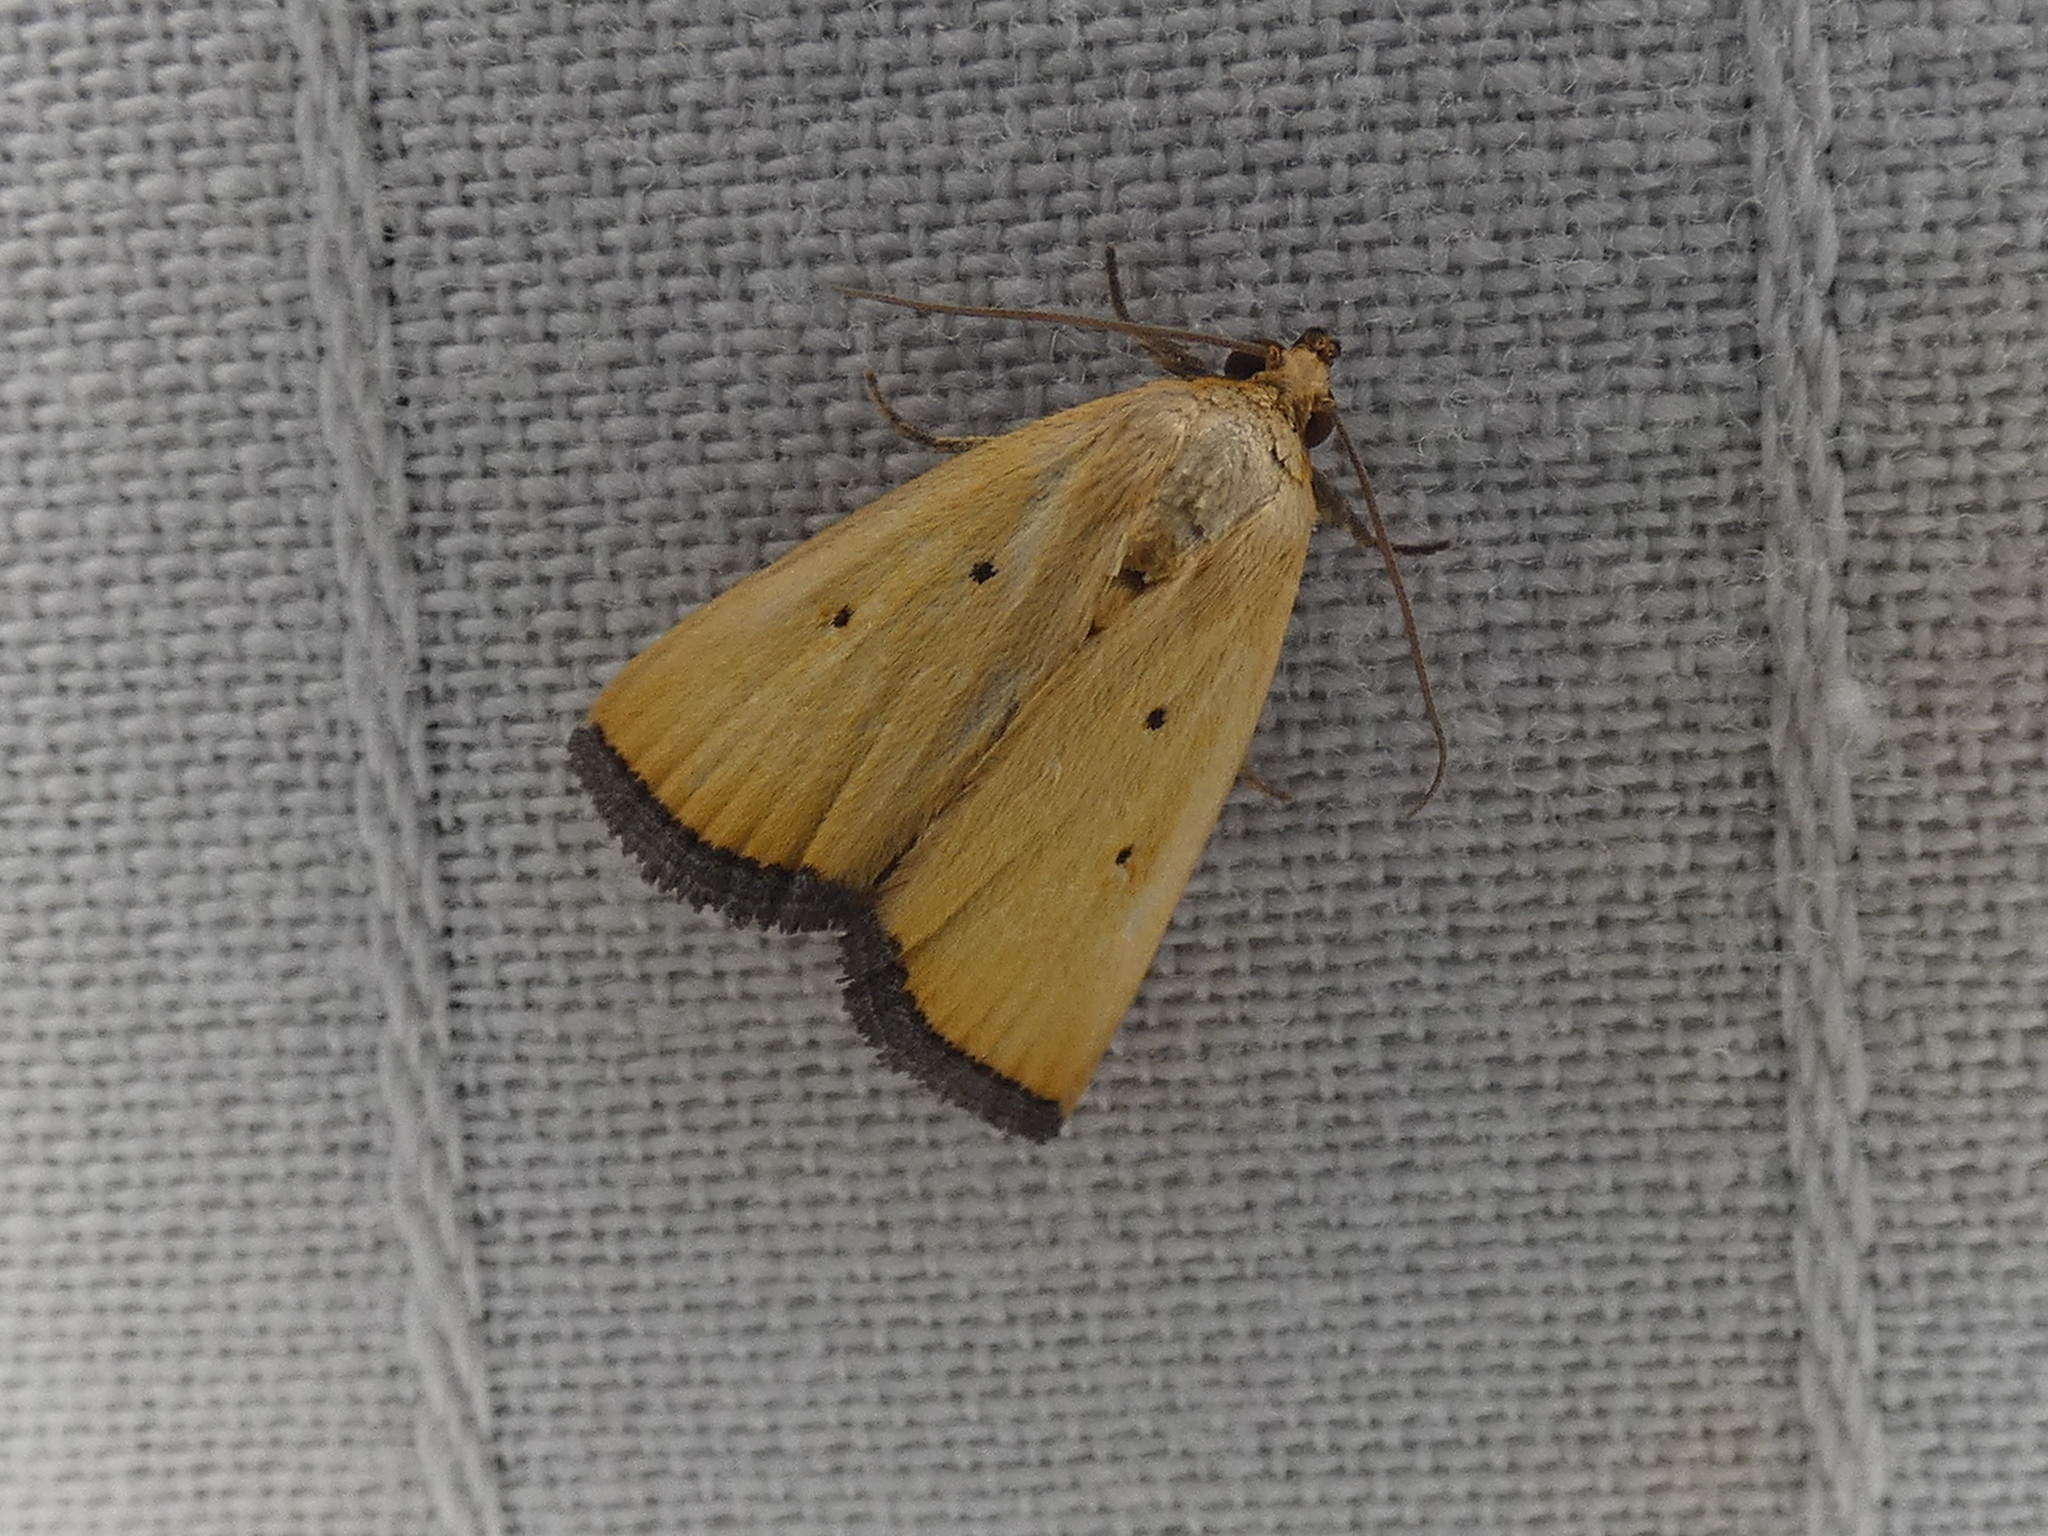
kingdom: Animalia
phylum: Arthropoda
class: Insecta
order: Lepidoptera
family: Noctuidae
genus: Marimatha
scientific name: Marimatha nigrofimbria
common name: Black-bordered lemon moth
